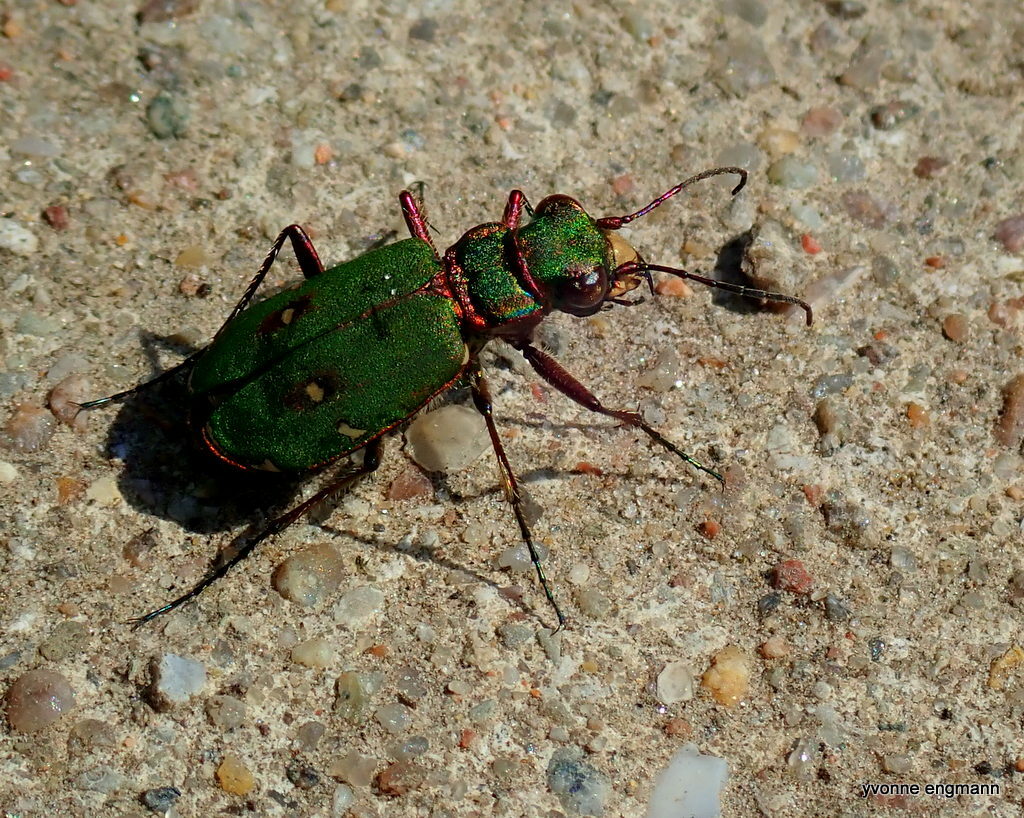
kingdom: Animalia
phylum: Arthropoda
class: Insecta
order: Coleoptera
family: Carabidae
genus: Cicindela
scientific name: Cicindela campestris
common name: Common tiger beetle
